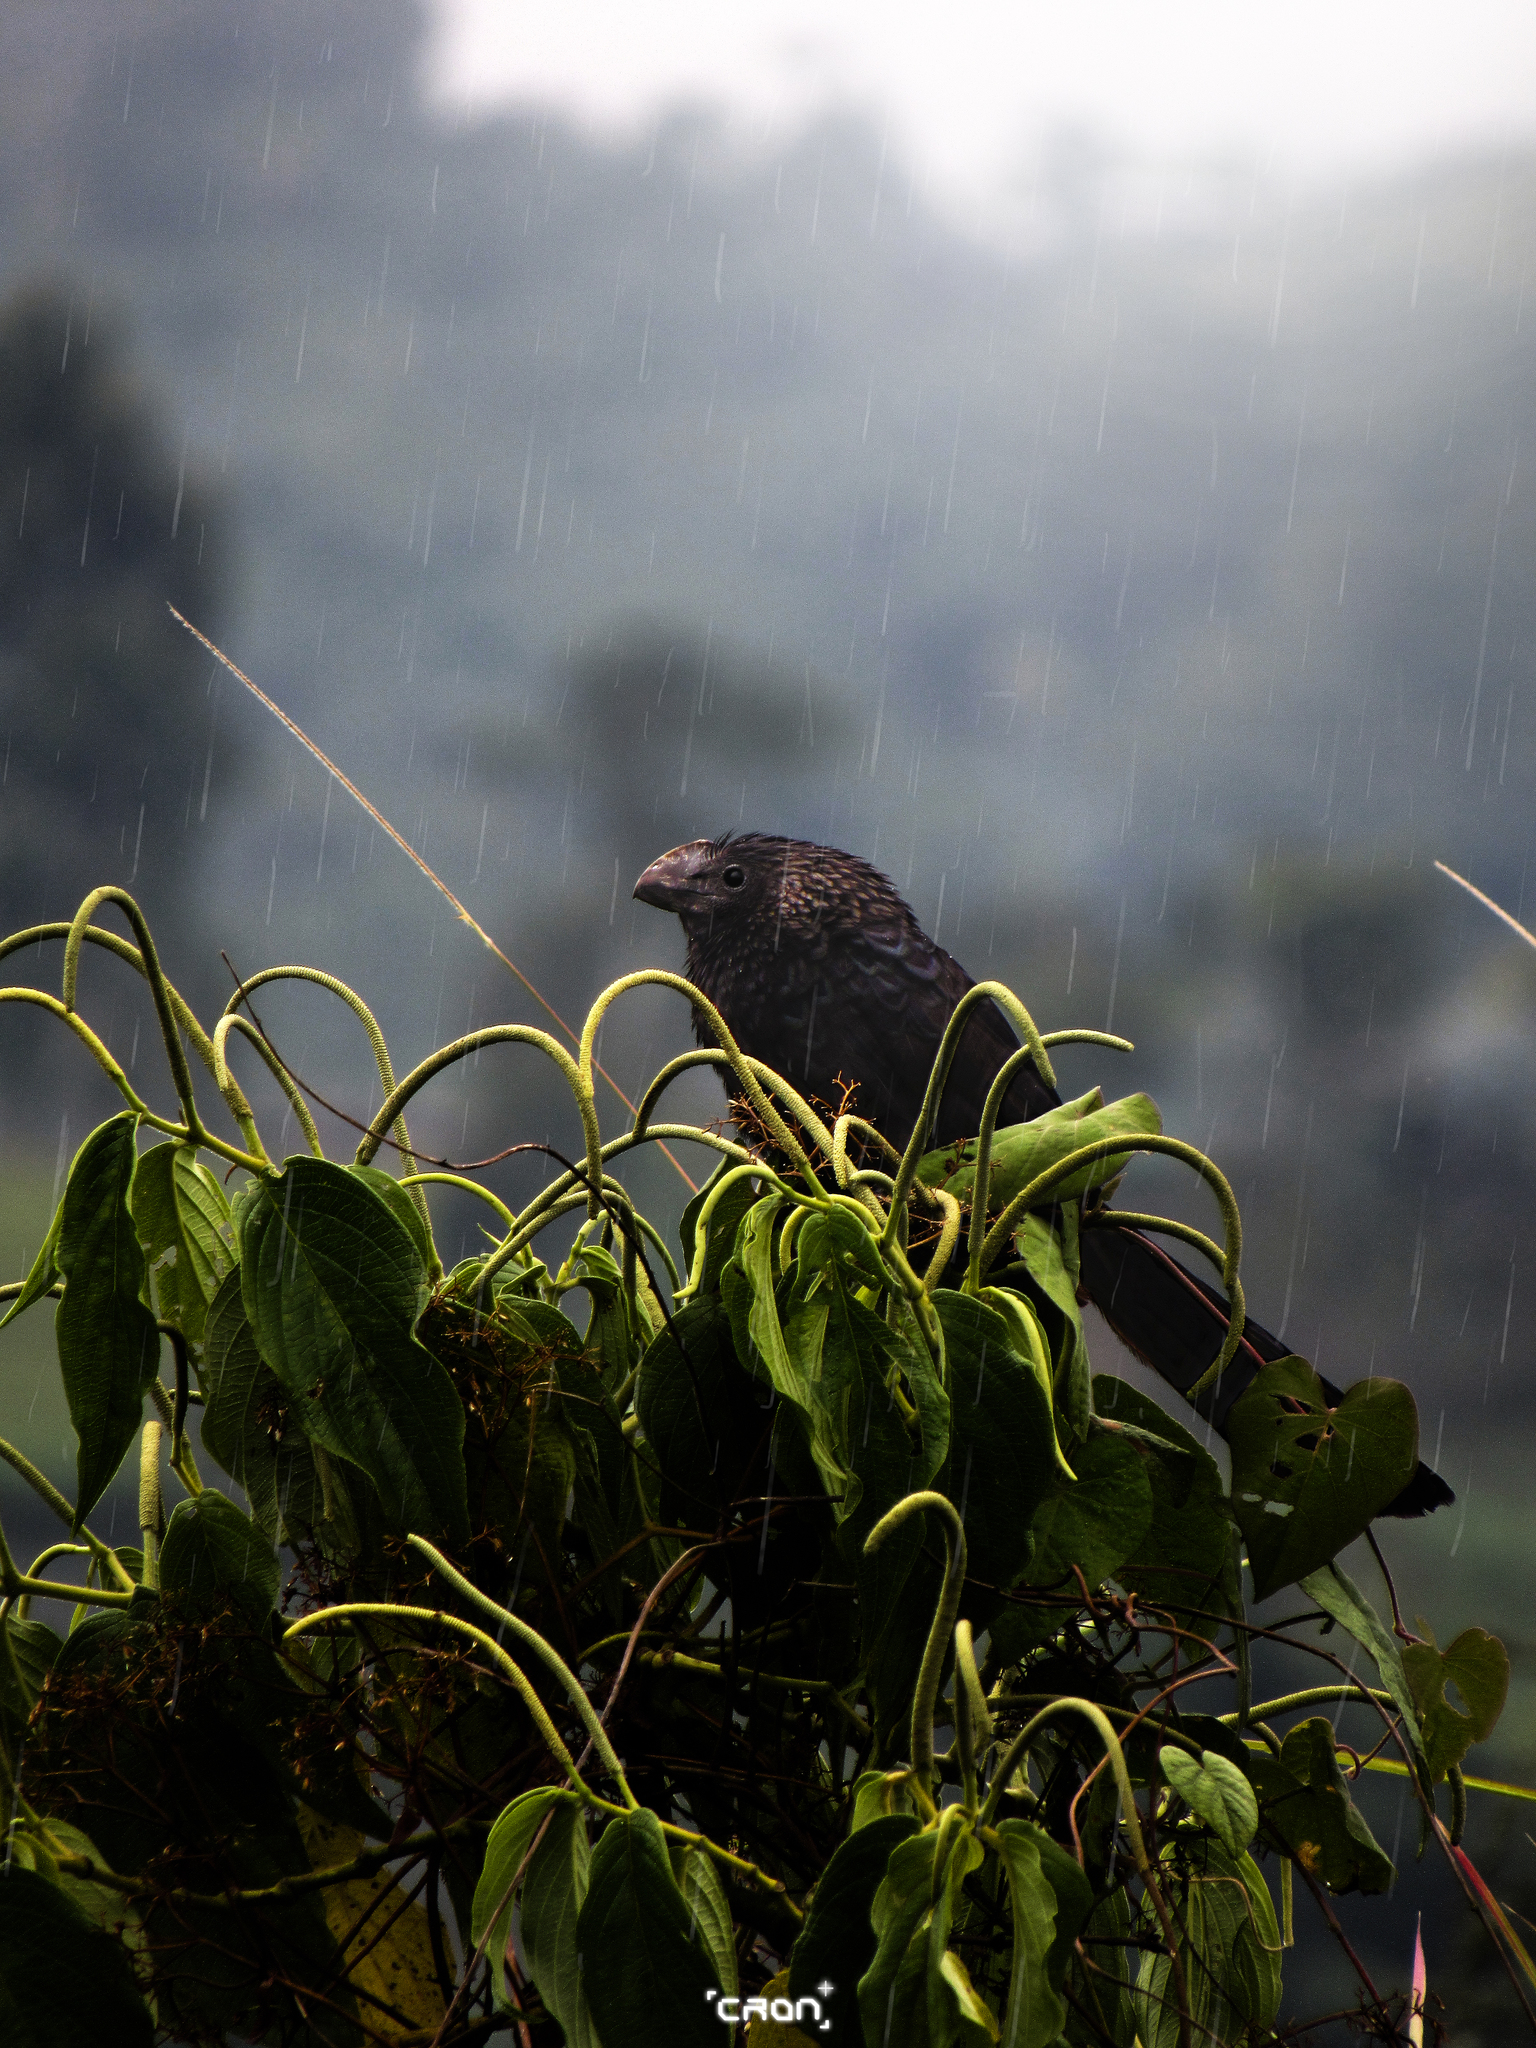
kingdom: Animalia
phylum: Chordata
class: Aves
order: Cuculiformes
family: Cuculidae
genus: Crotophaga
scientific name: Crotophaga ani
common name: Smooth-billed ani
